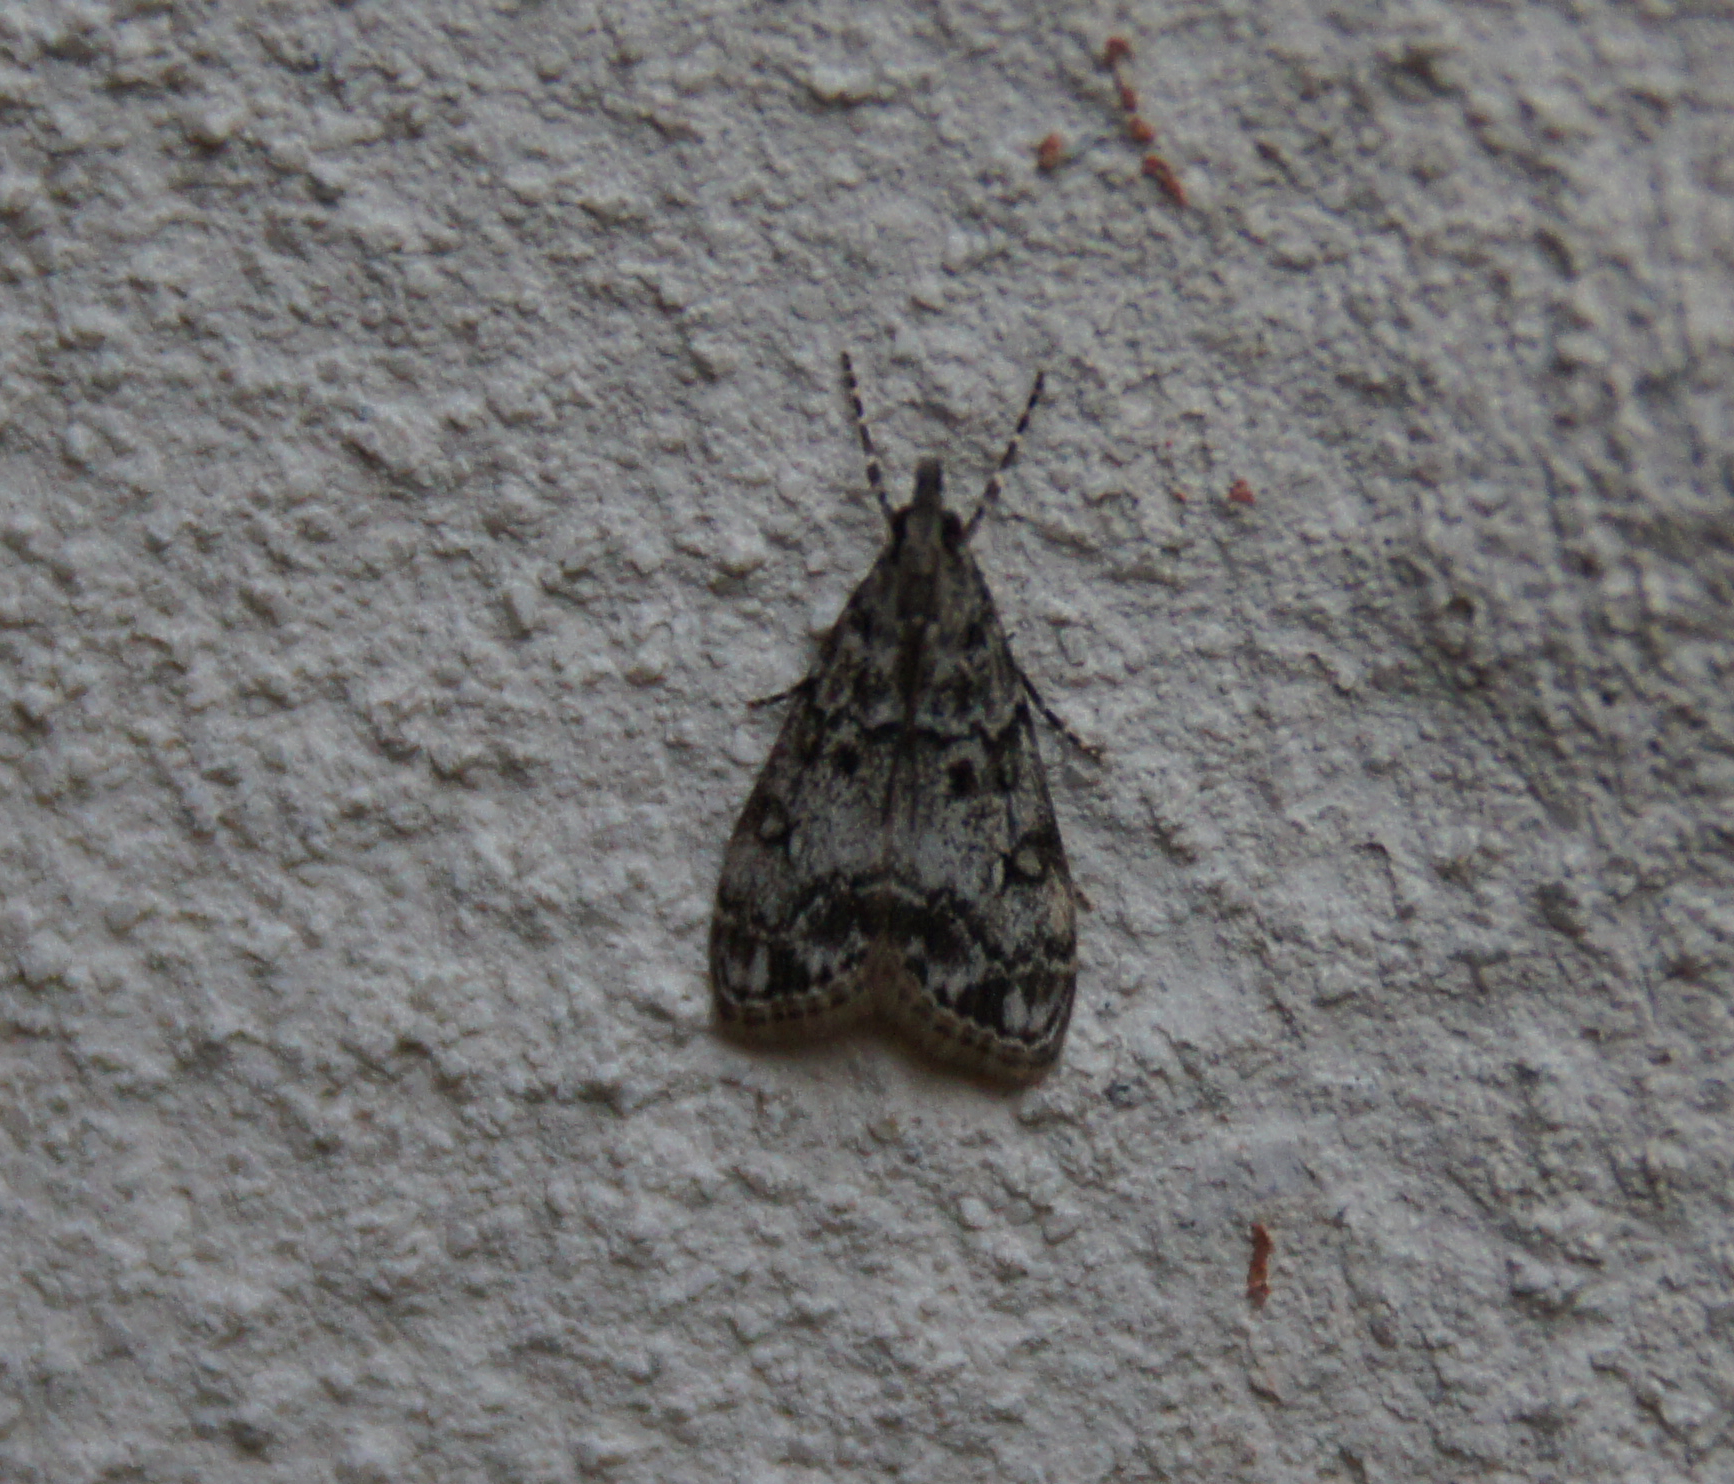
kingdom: Animalia
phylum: Arthropoda
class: Insecta
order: Lepidoptera
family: Crambidae
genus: Eudonia
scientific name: Eudonia lacustrata
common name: Little grey
